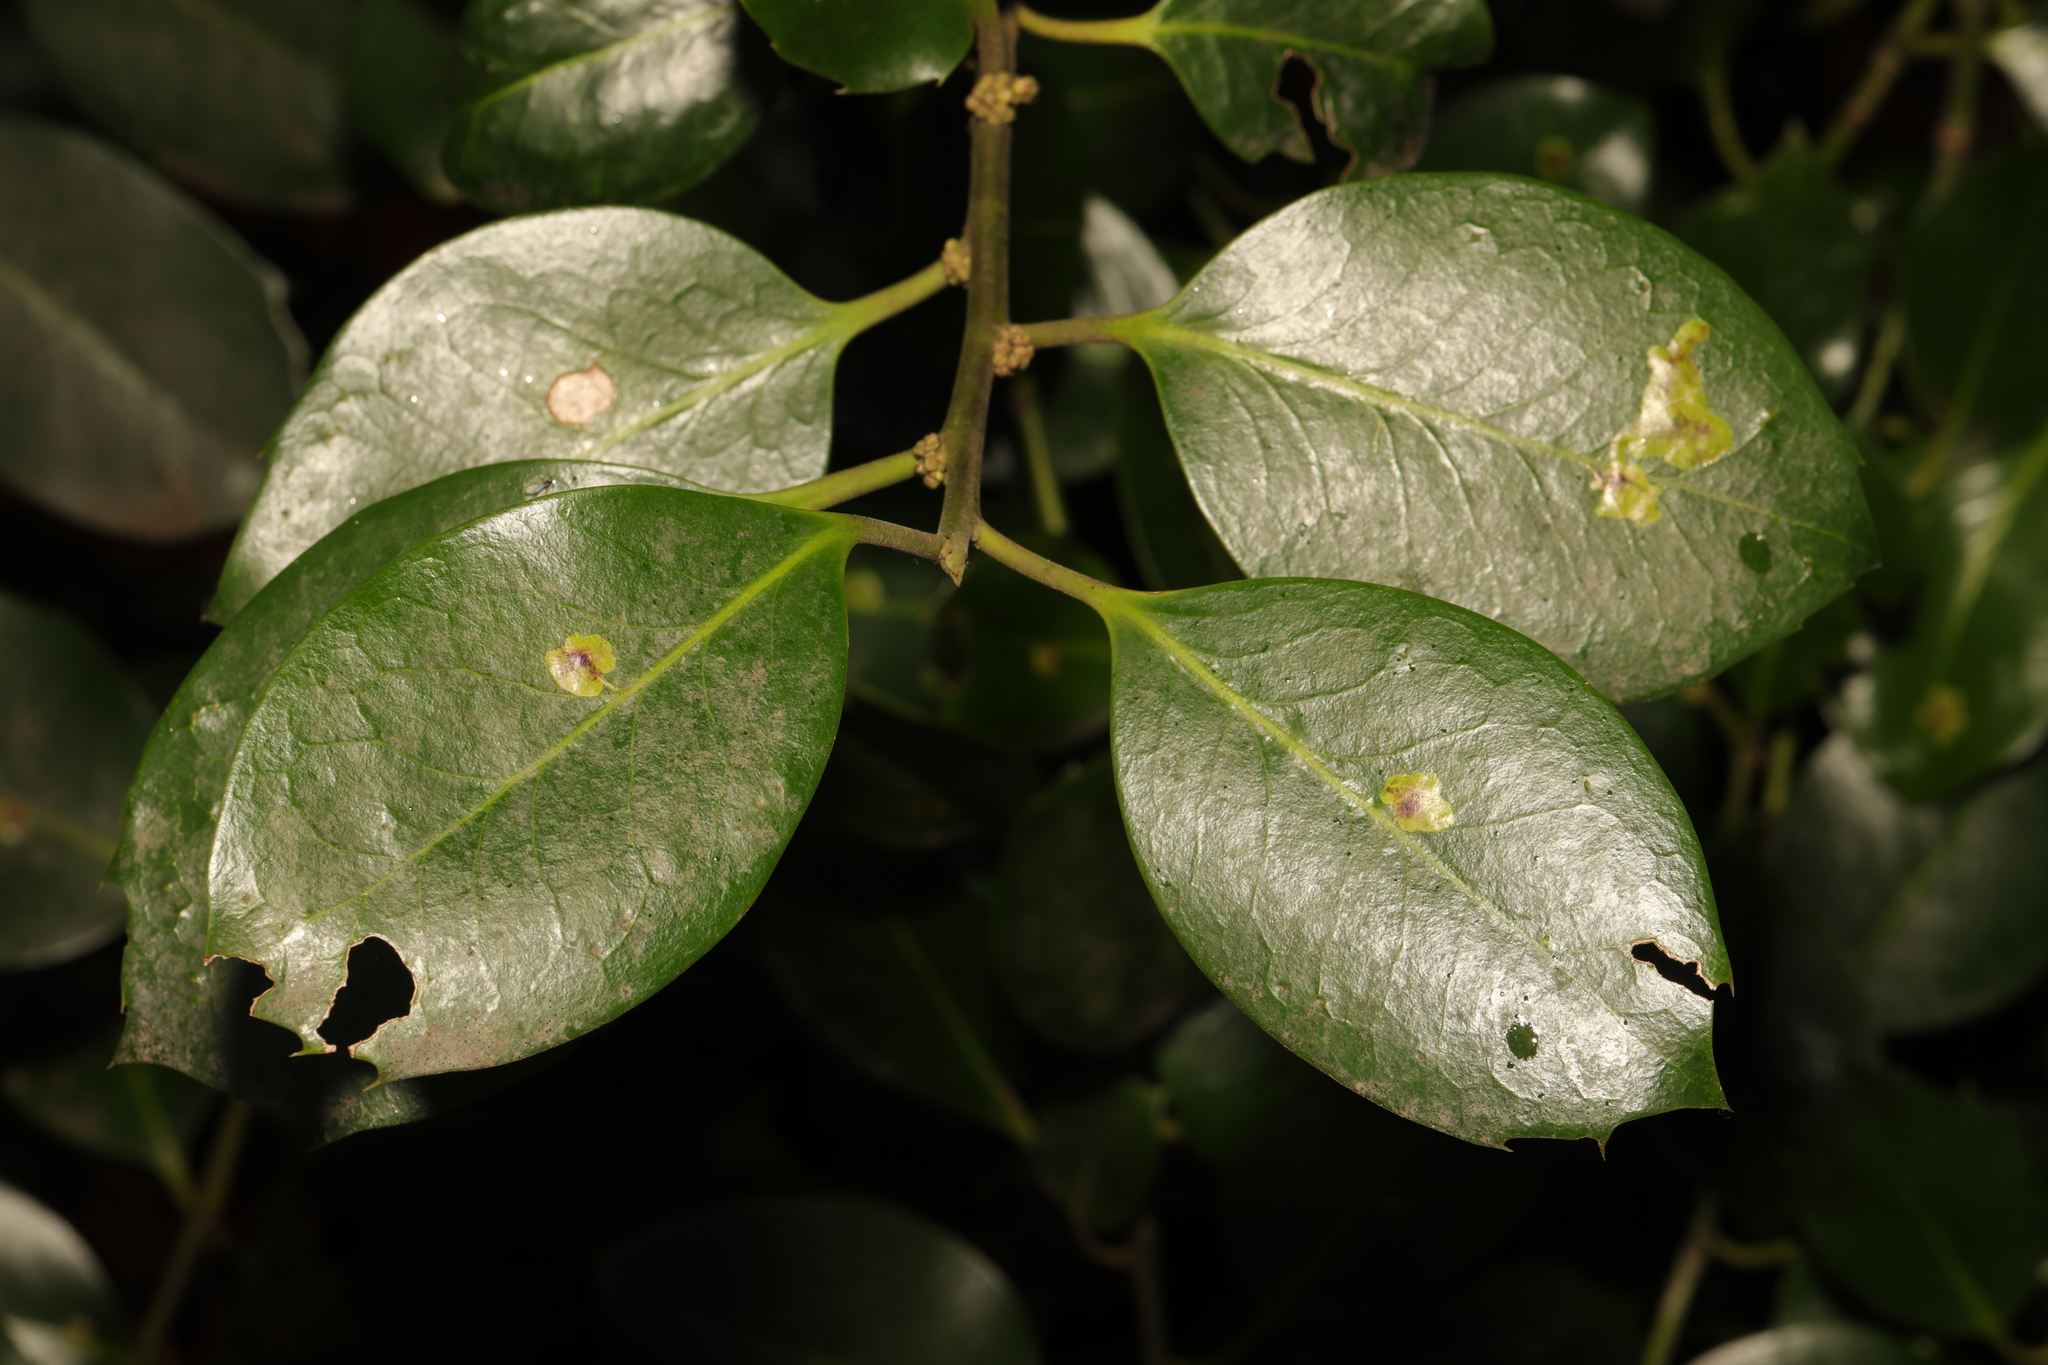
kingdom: Plantae
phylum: Tracheophyta
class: Magnoliopsida
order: Aquifoliales
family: Aquifoliaceae
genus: Ilex
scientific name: Ilex aquifolium
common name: English holly
